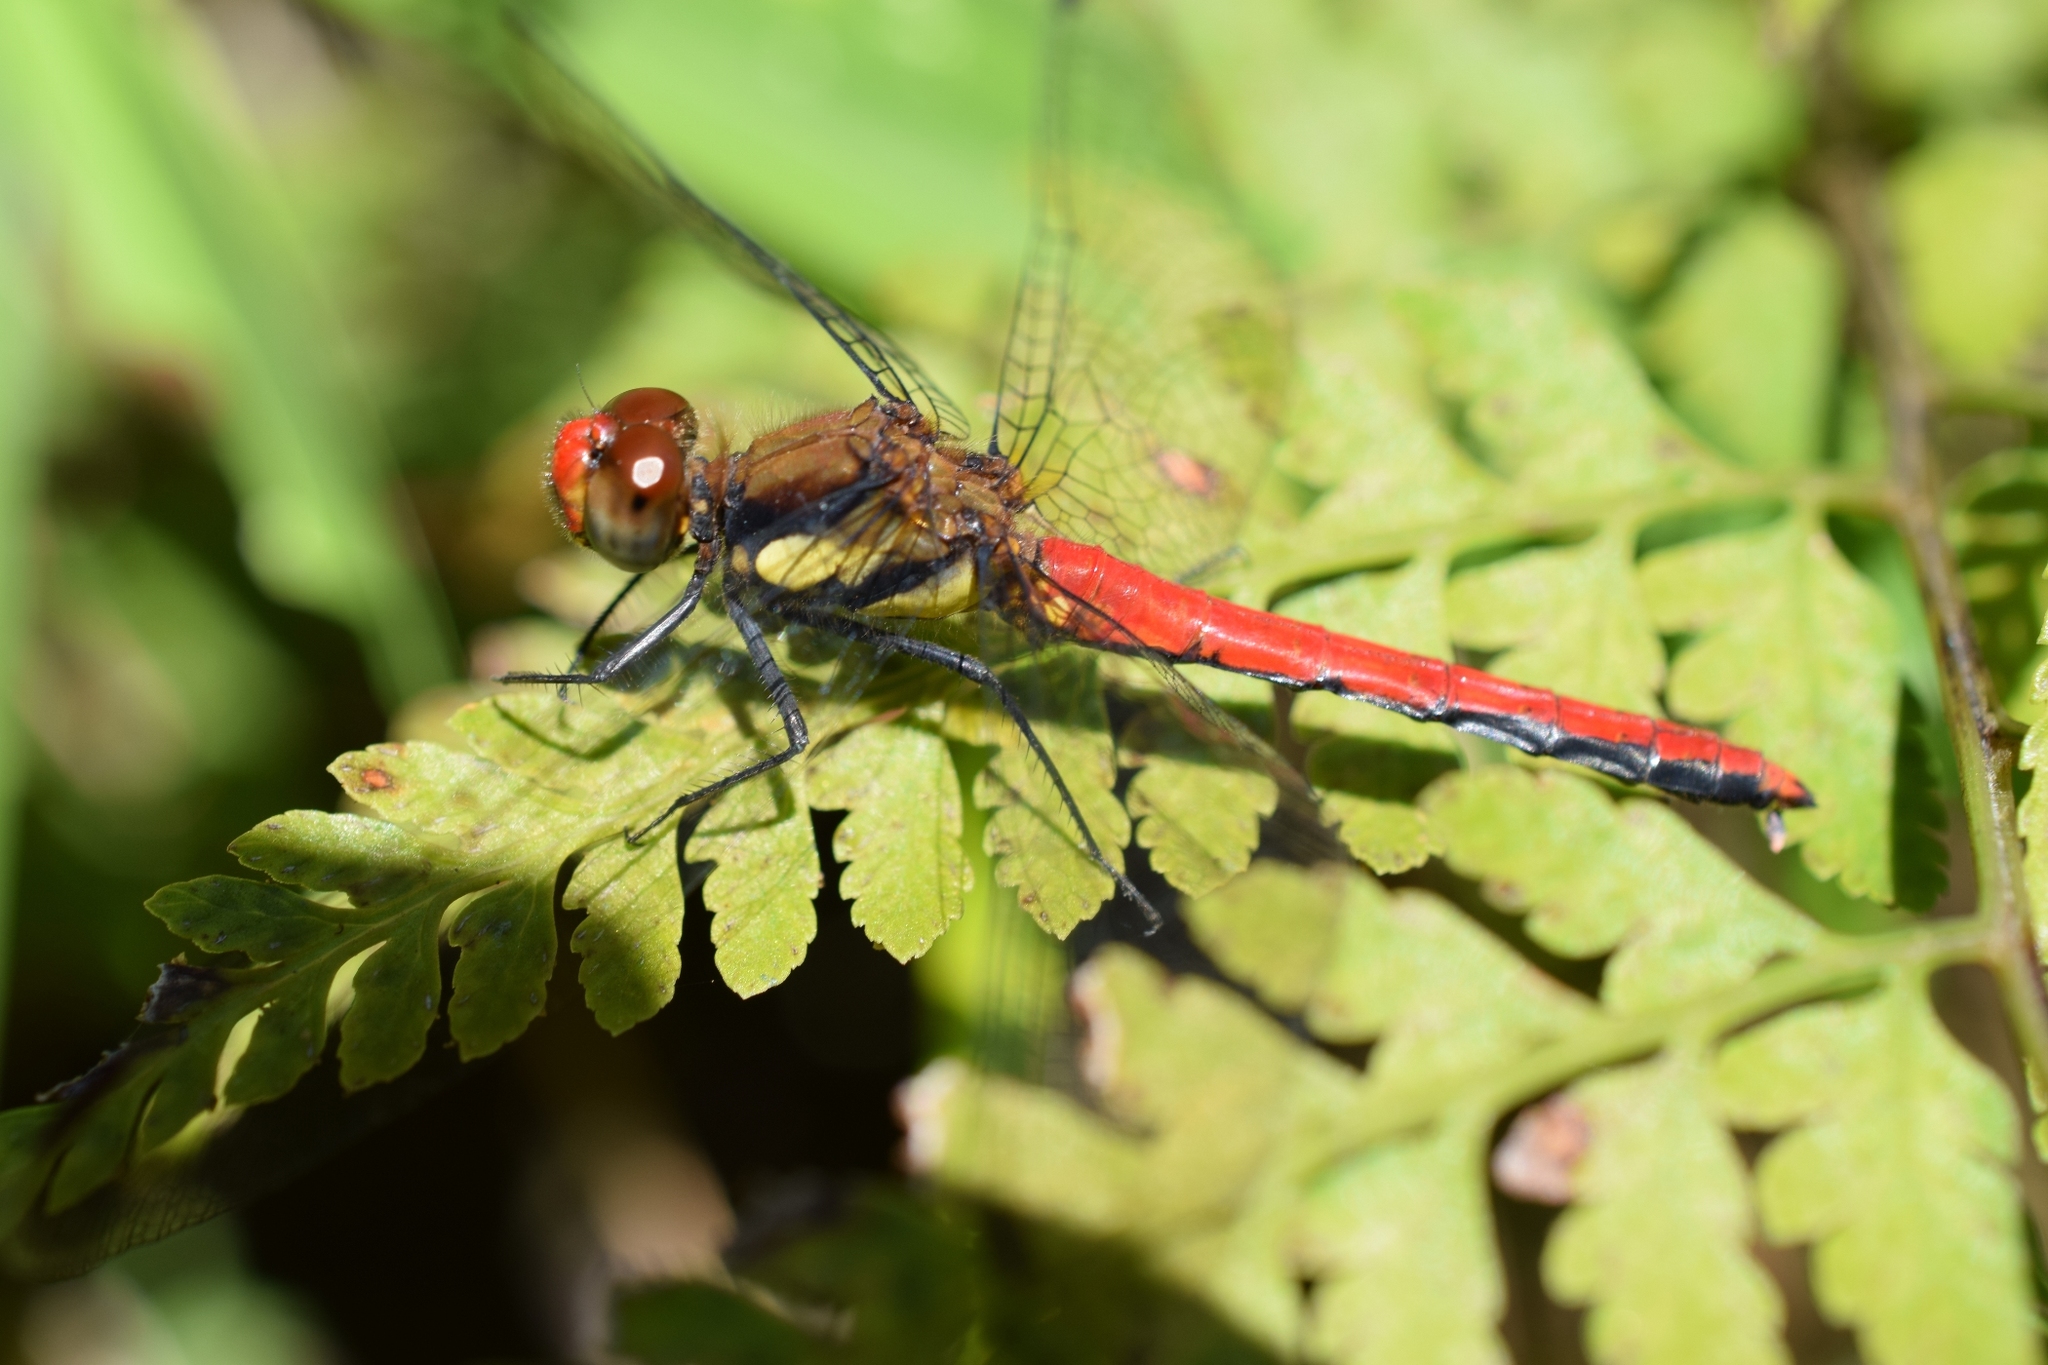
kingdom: Animalia
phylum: Arthropoda
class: Insecta
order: Odonata
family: Libellulidae
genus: Sympetrum
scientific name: Sympetrum orientale
